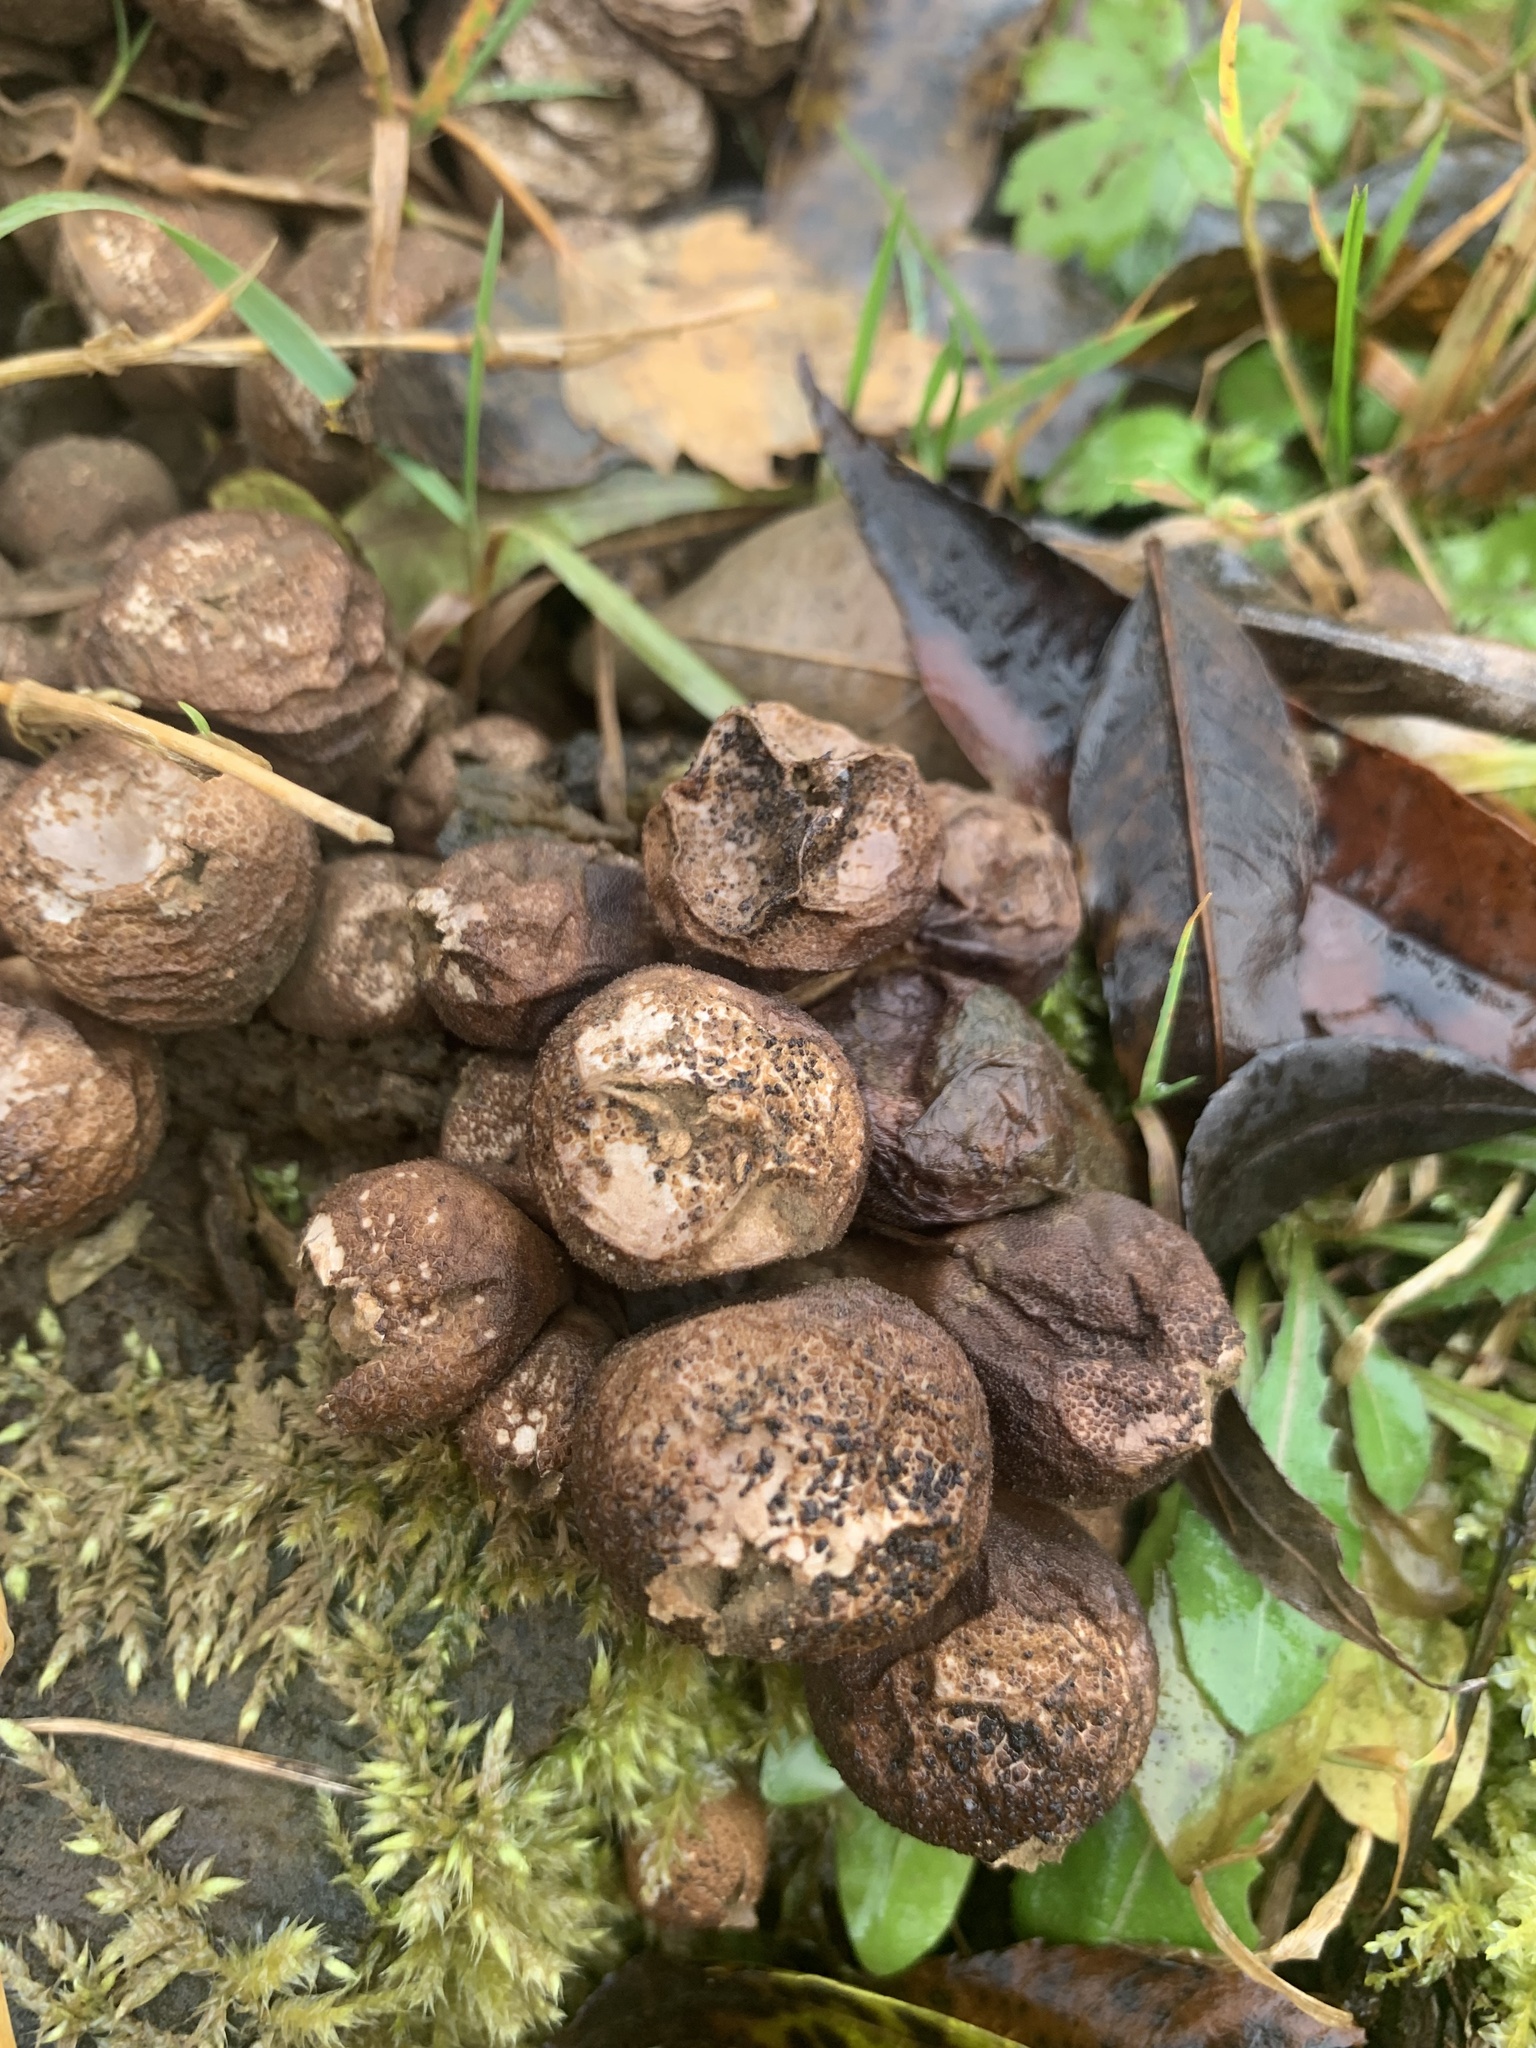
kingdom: Fungi
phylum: Basidiomycota
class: Agaricomycetes
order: Agaricales
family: Lycoperdaceae
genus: Apioperdon
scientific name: Apioperdon pyriforme
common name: Pear-shaped puffball
